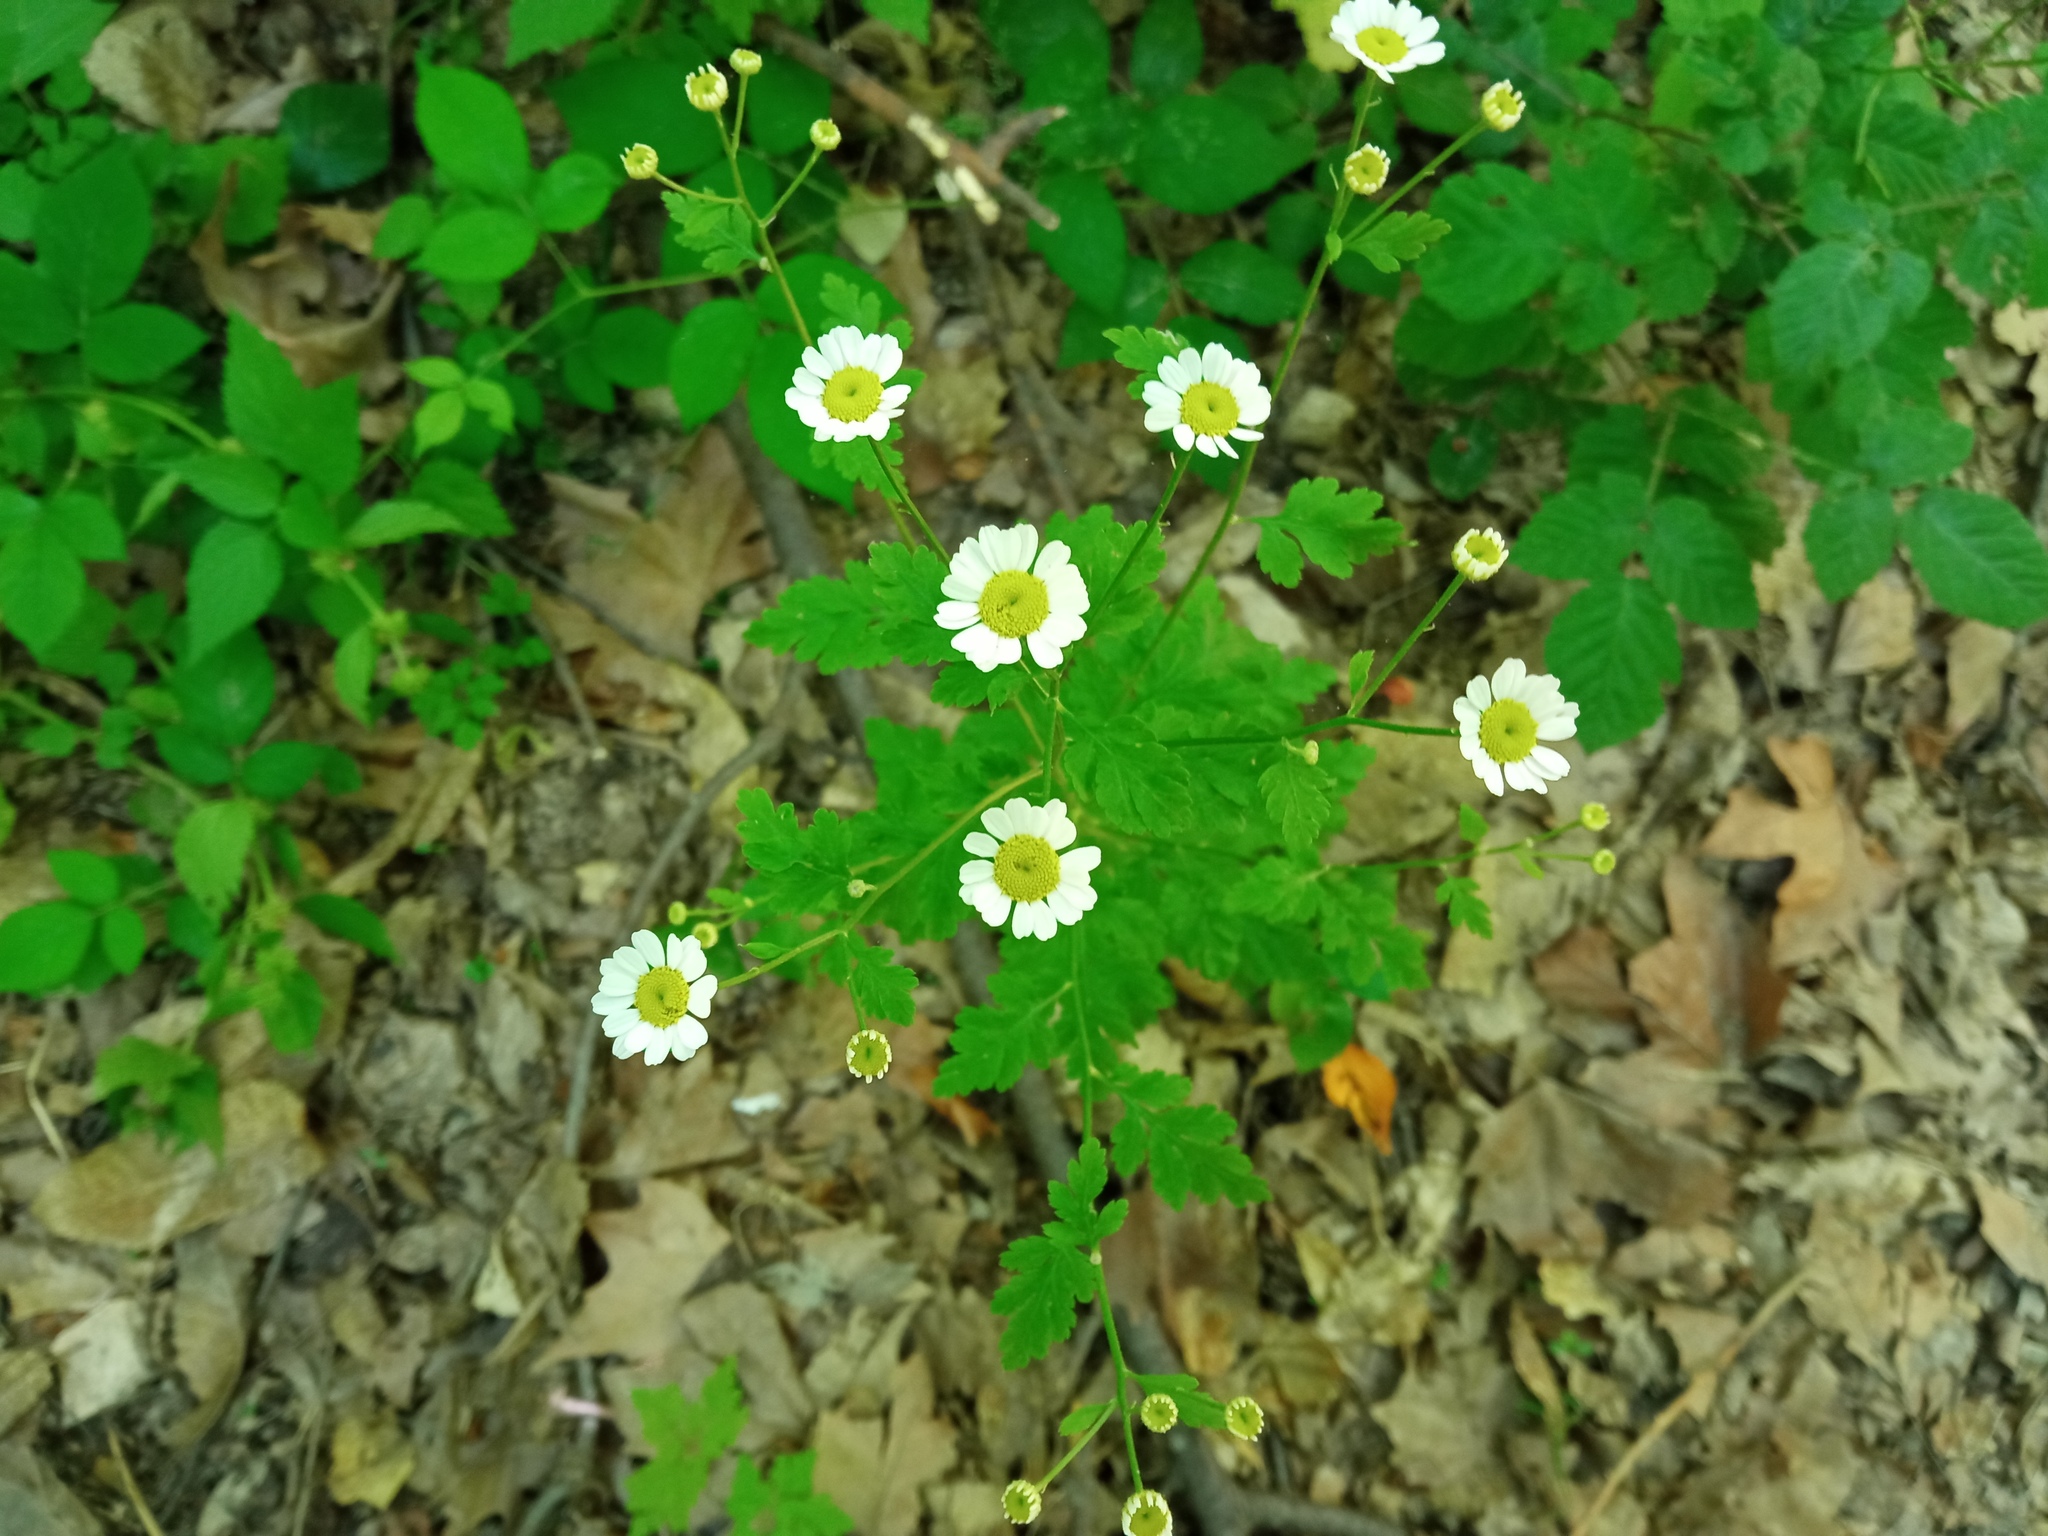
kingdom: Plantae
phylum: Tracheophyta
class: Magnoliopsida
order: Asterales
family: Asteraceae
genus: Tanacetum
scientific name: Tanacetum parthenium
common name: Feverfew
